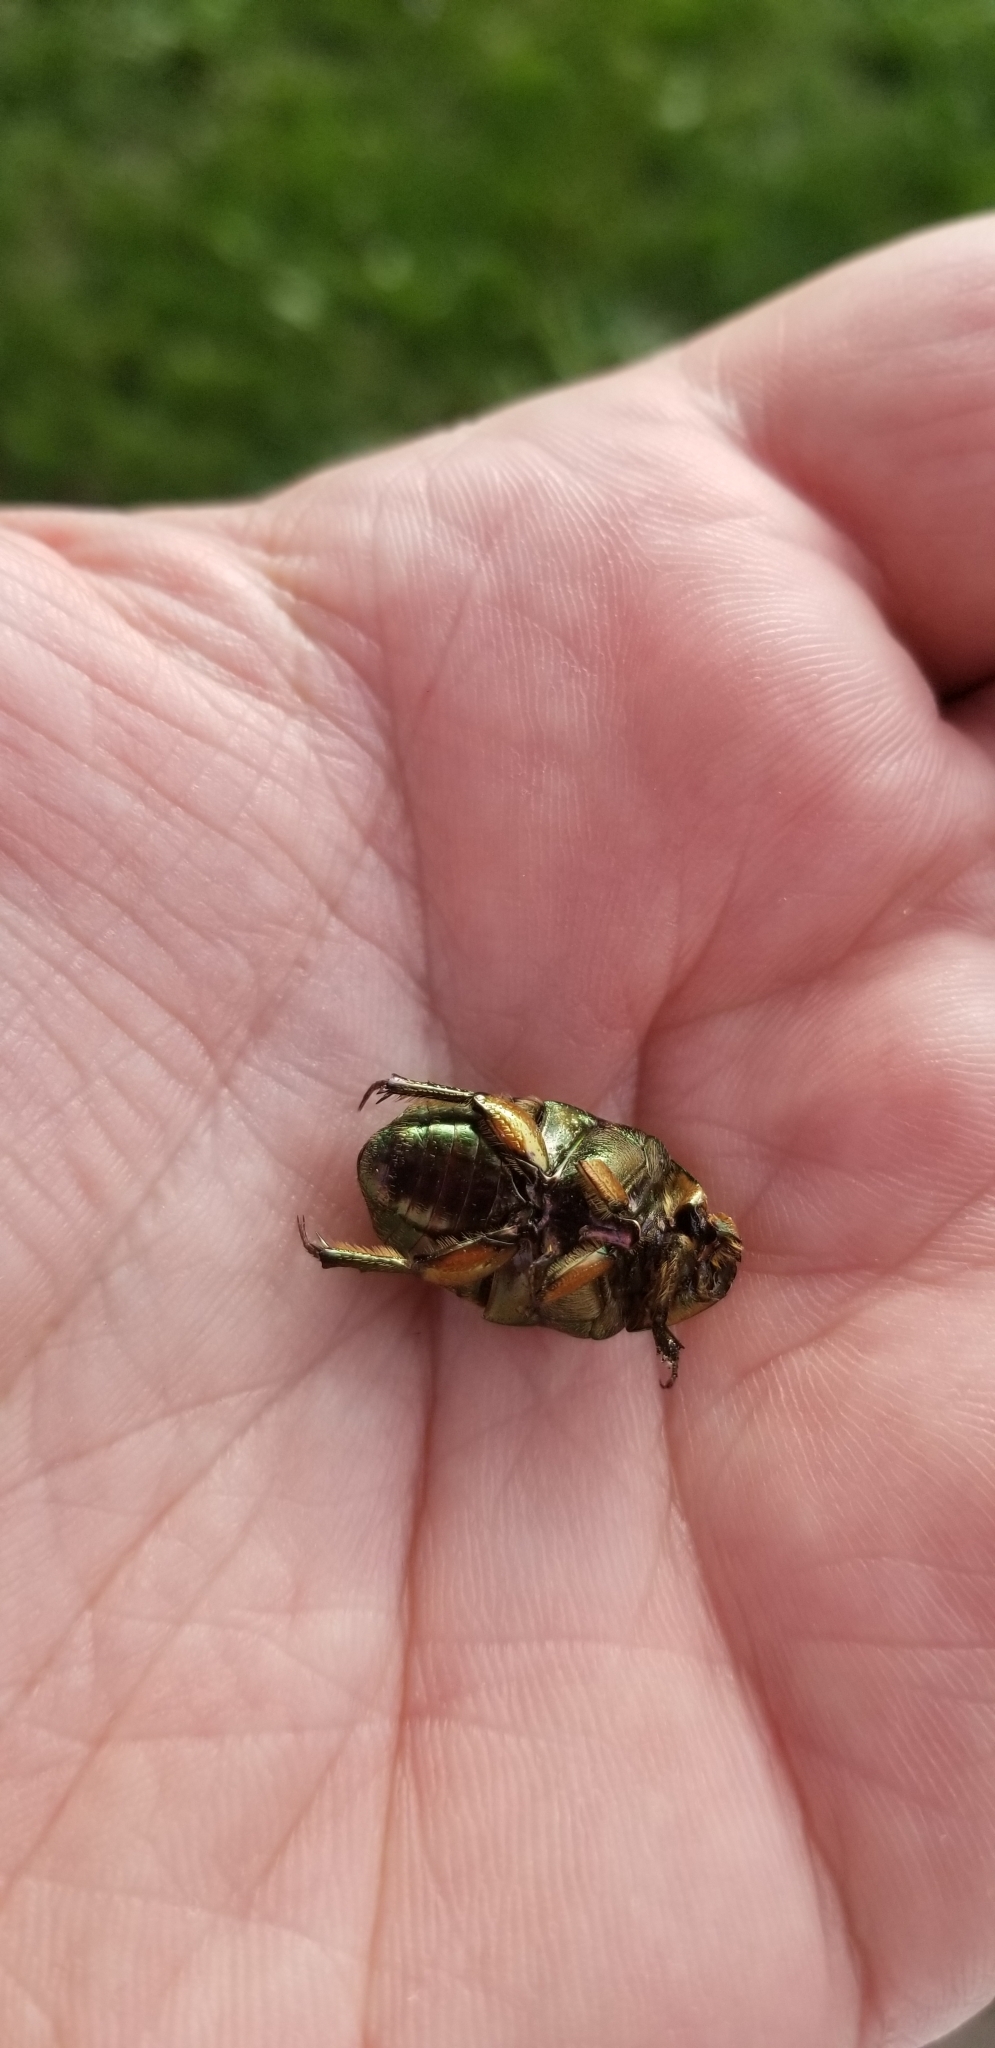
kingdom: Animalia
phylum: Arthropoda
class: Insecta
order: Coleoptera
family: Scarabaeidae
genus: Cotinis
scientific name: Cotinis nitida
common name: Common green june beetle
